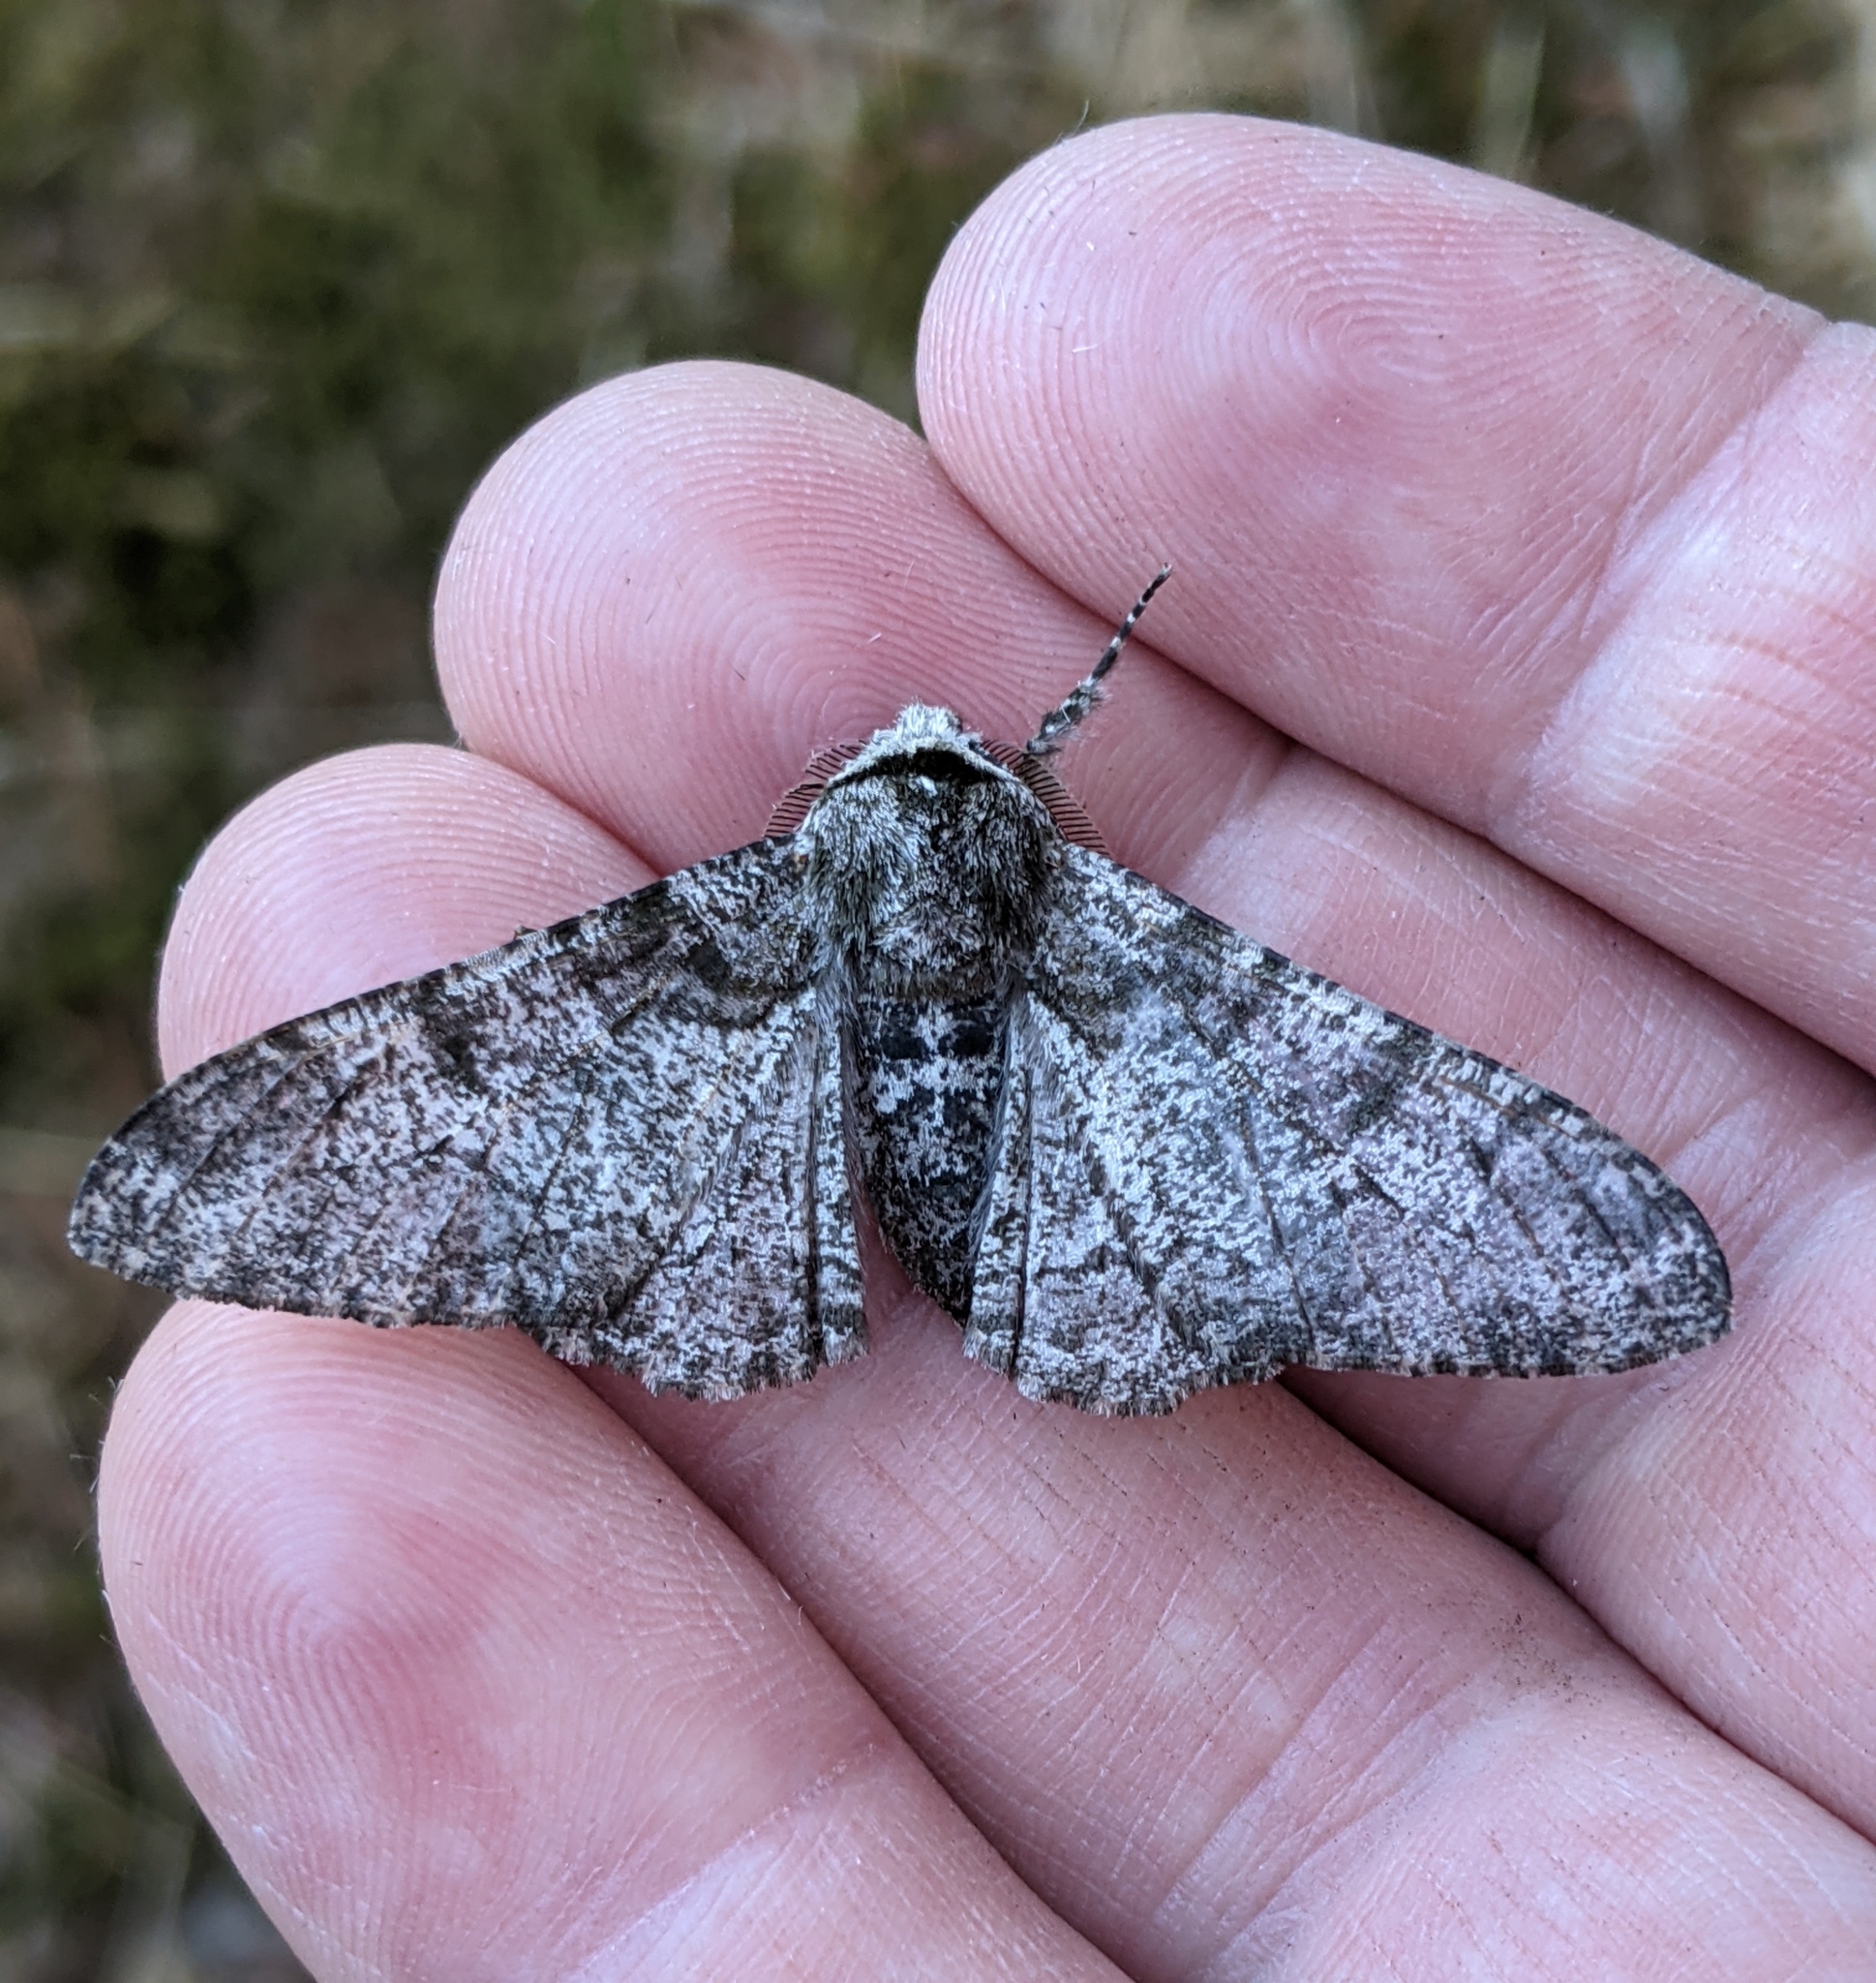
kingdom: Animalia
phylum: Arthropoda
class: Insecta
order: Lepidoptera
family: Geometridae
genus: Biston
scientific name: Biston betularia
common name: Peppered moth
